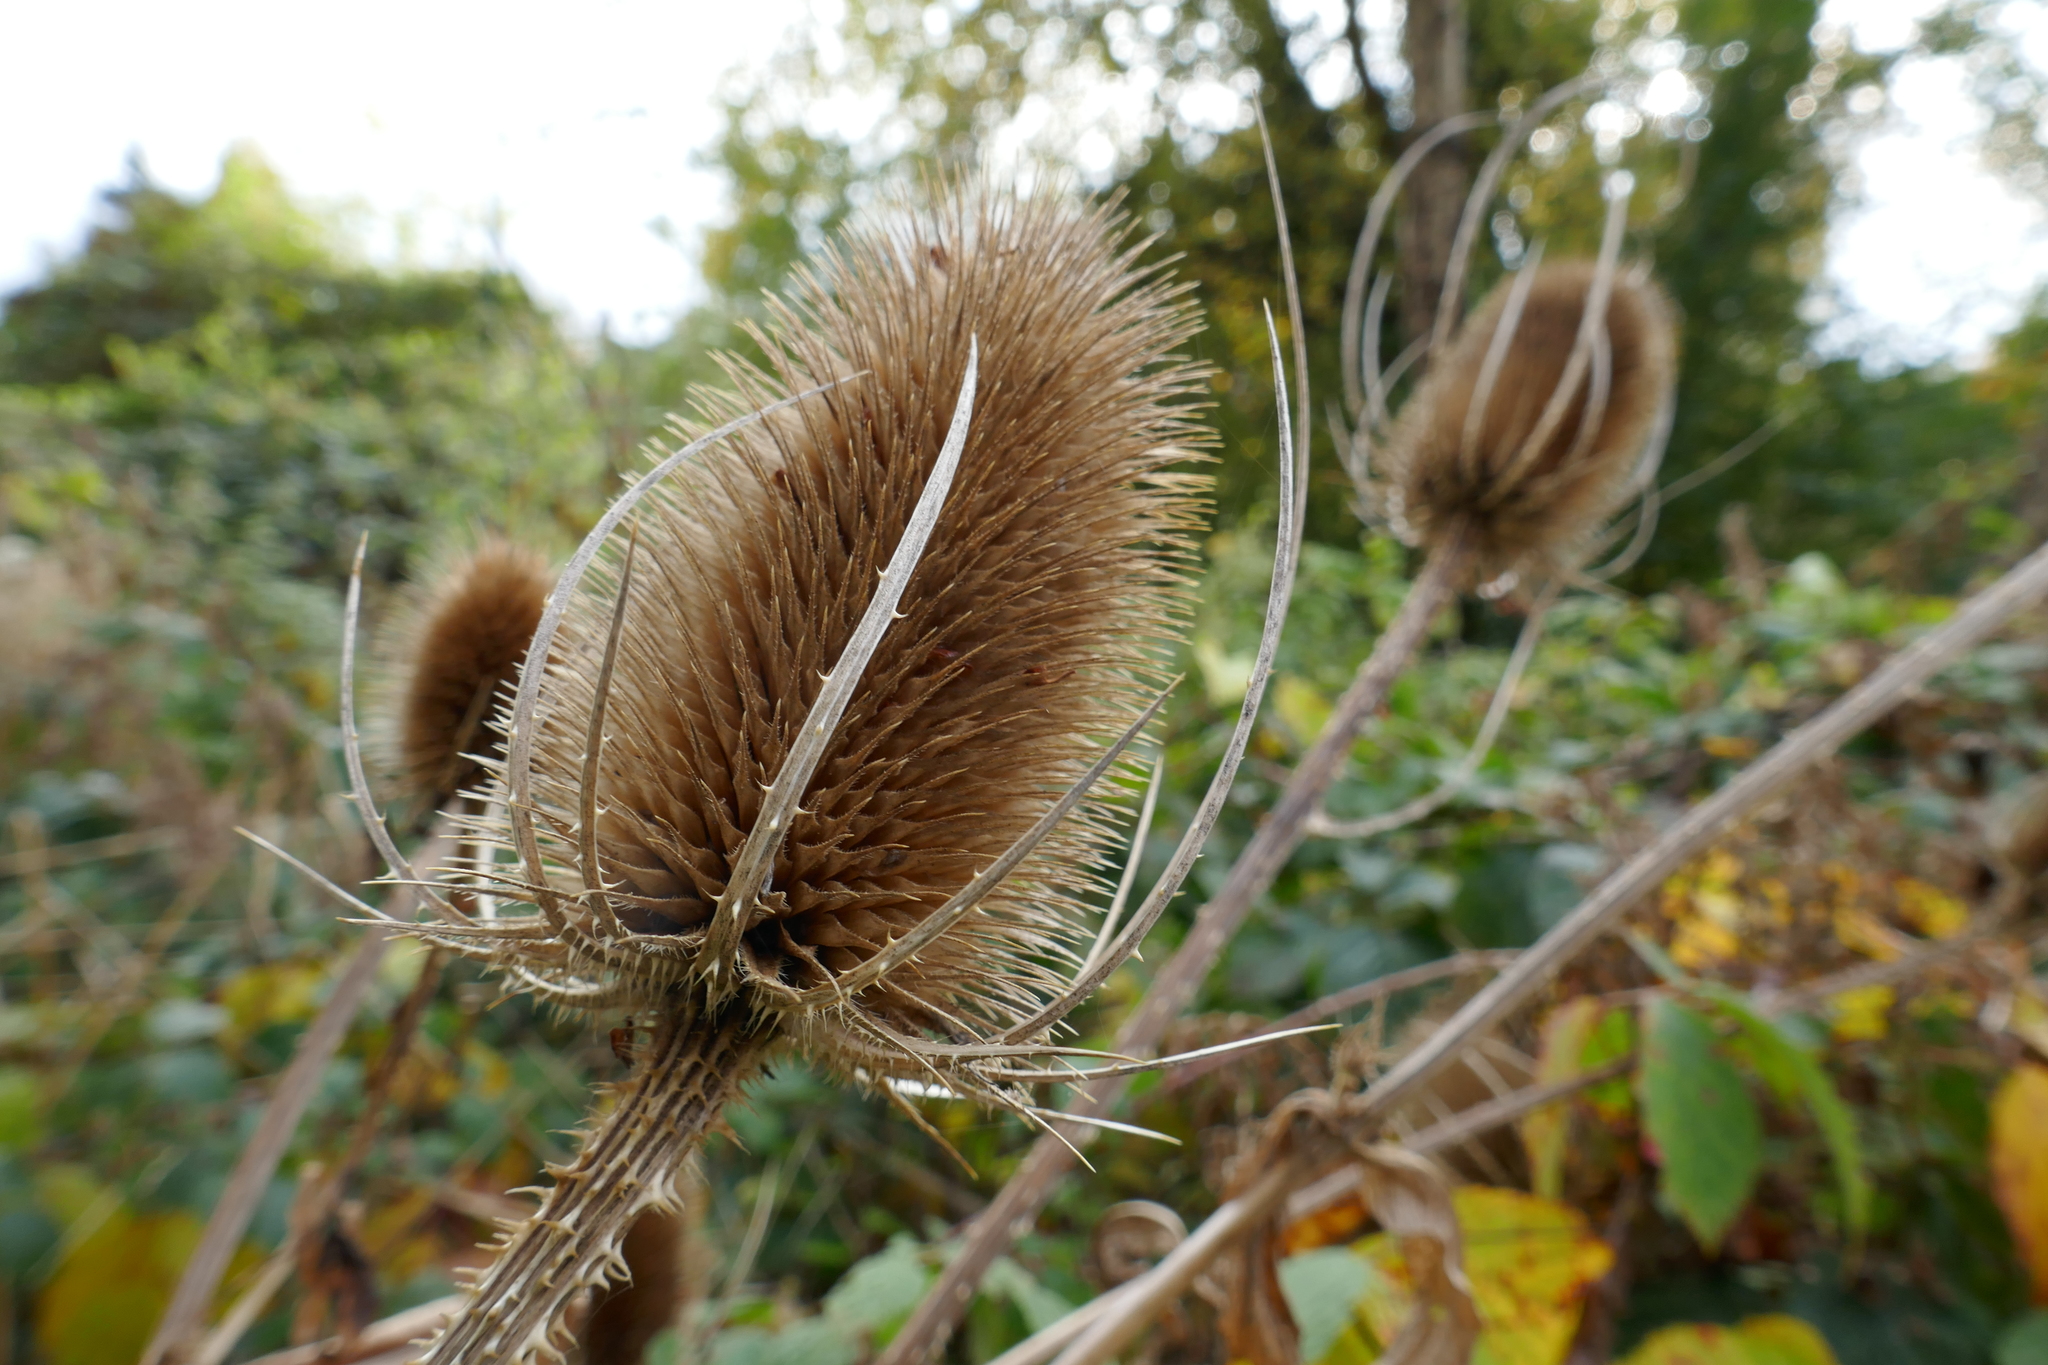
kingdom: Plantae
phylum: Tracheophyta
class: Magnoliopsida
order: Dipsacales
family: Caprifoliaceae
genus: Dipsacus
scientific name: Dipsacus fullonum
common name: Teasel
